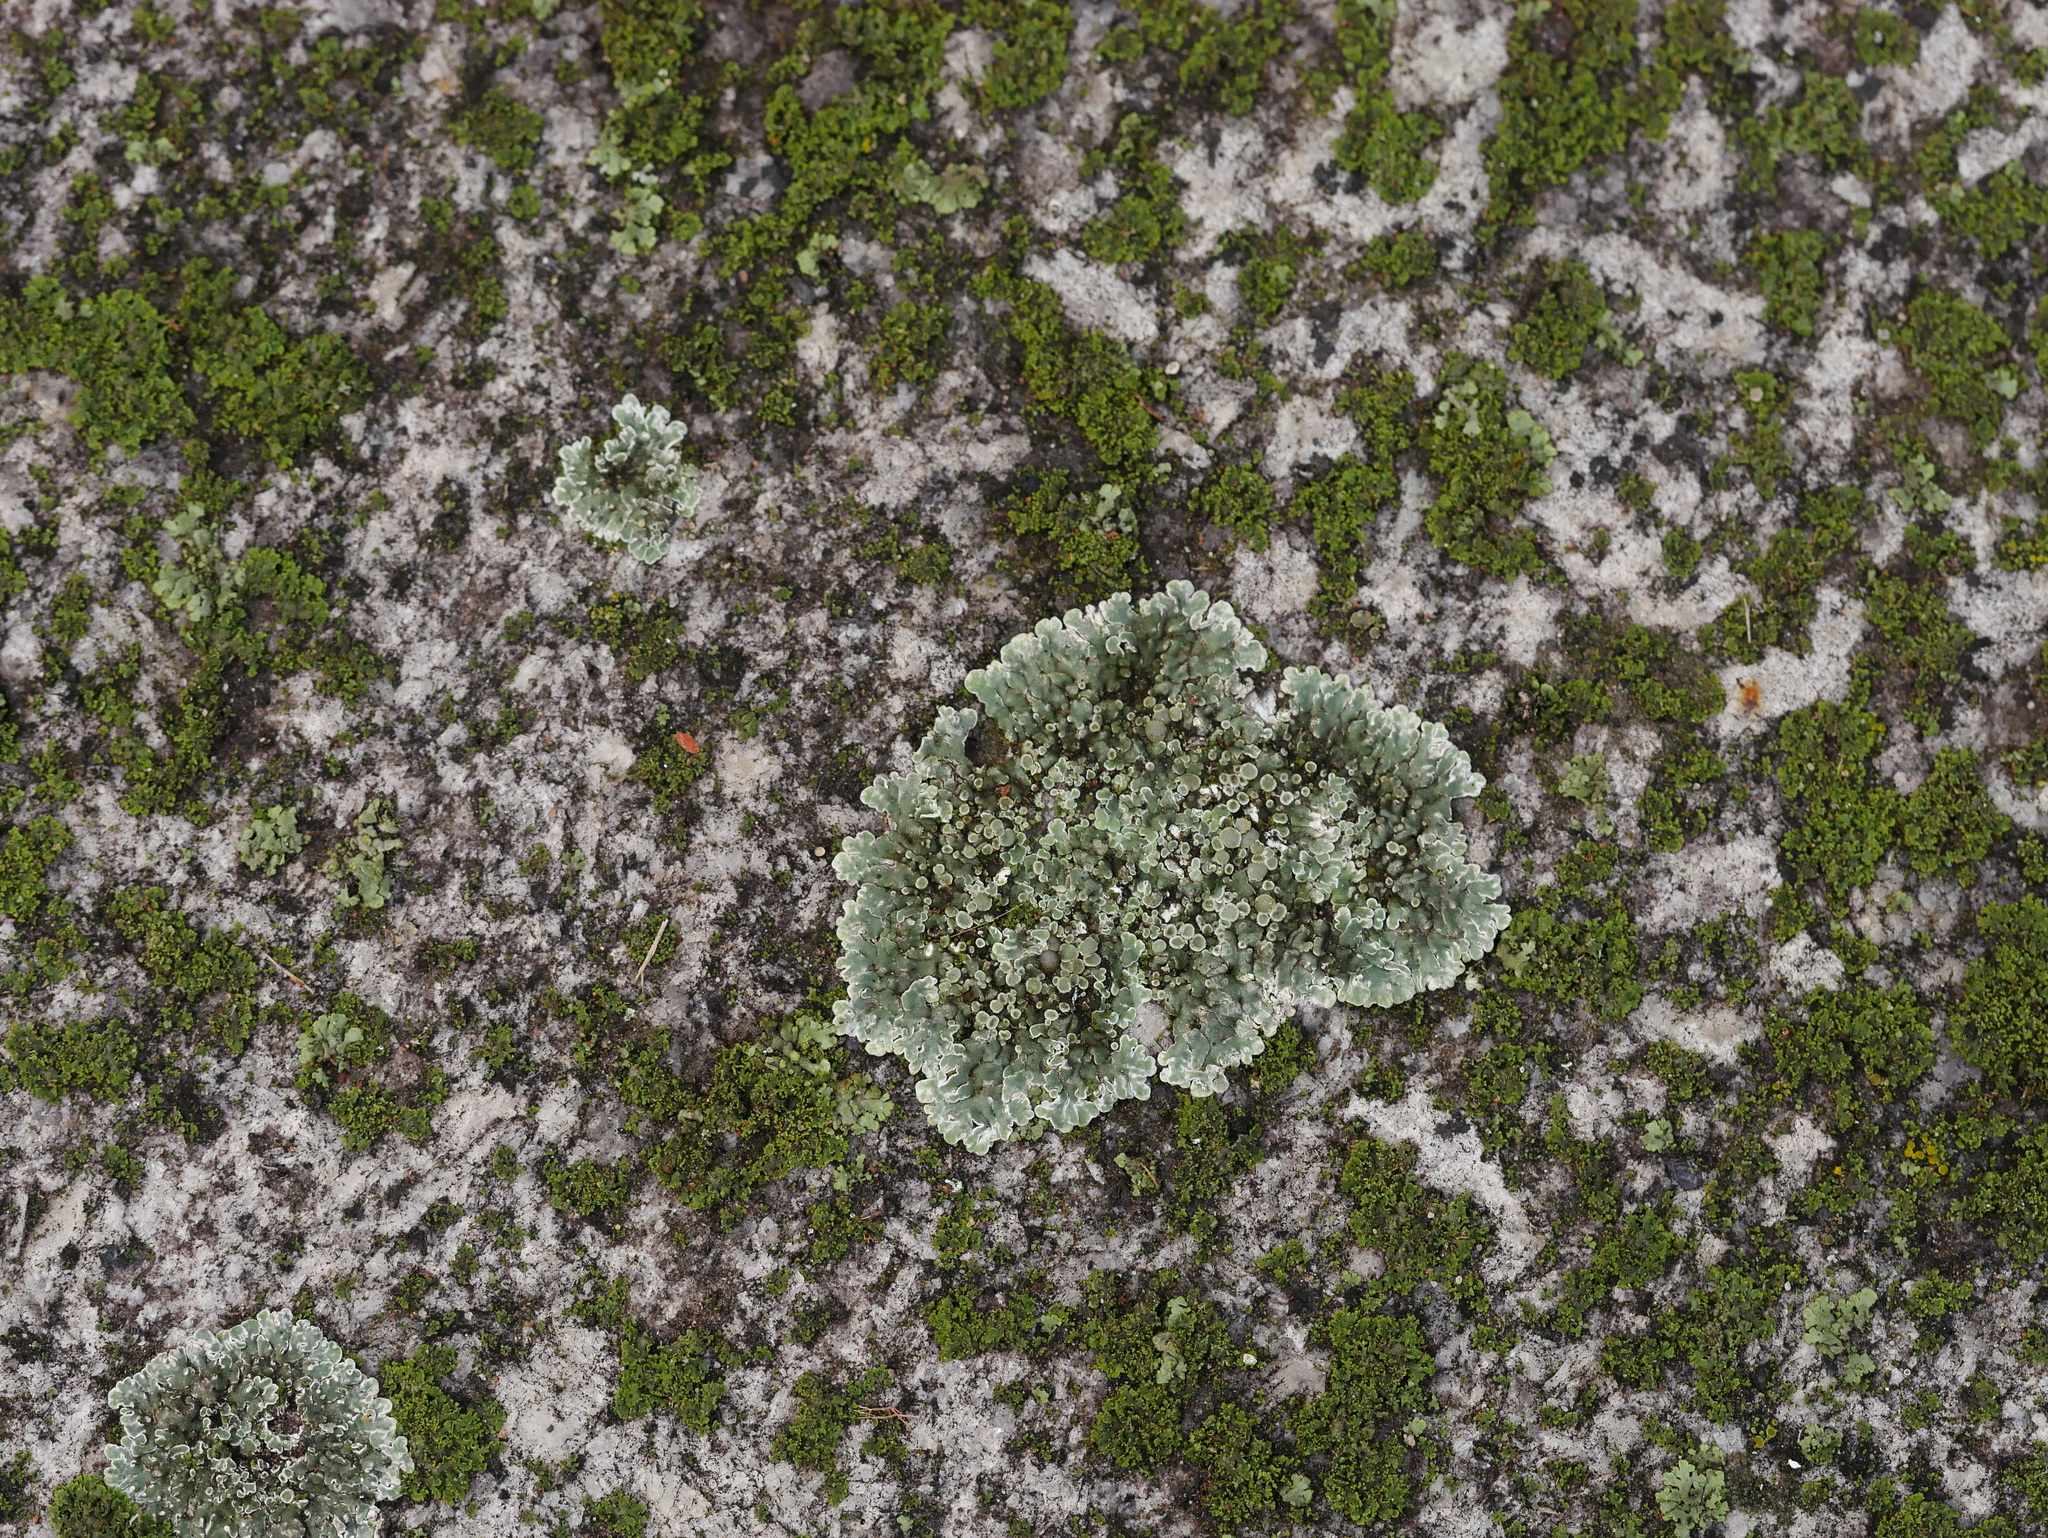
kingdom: Fungi
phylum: Ascomycota
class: Lecanoromycetes
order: Lecanorales
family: Lecanoraceae
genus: Protoparmeliopsis
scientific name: Protoparmeliopsis muralis
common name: Stonewall rim lichen
